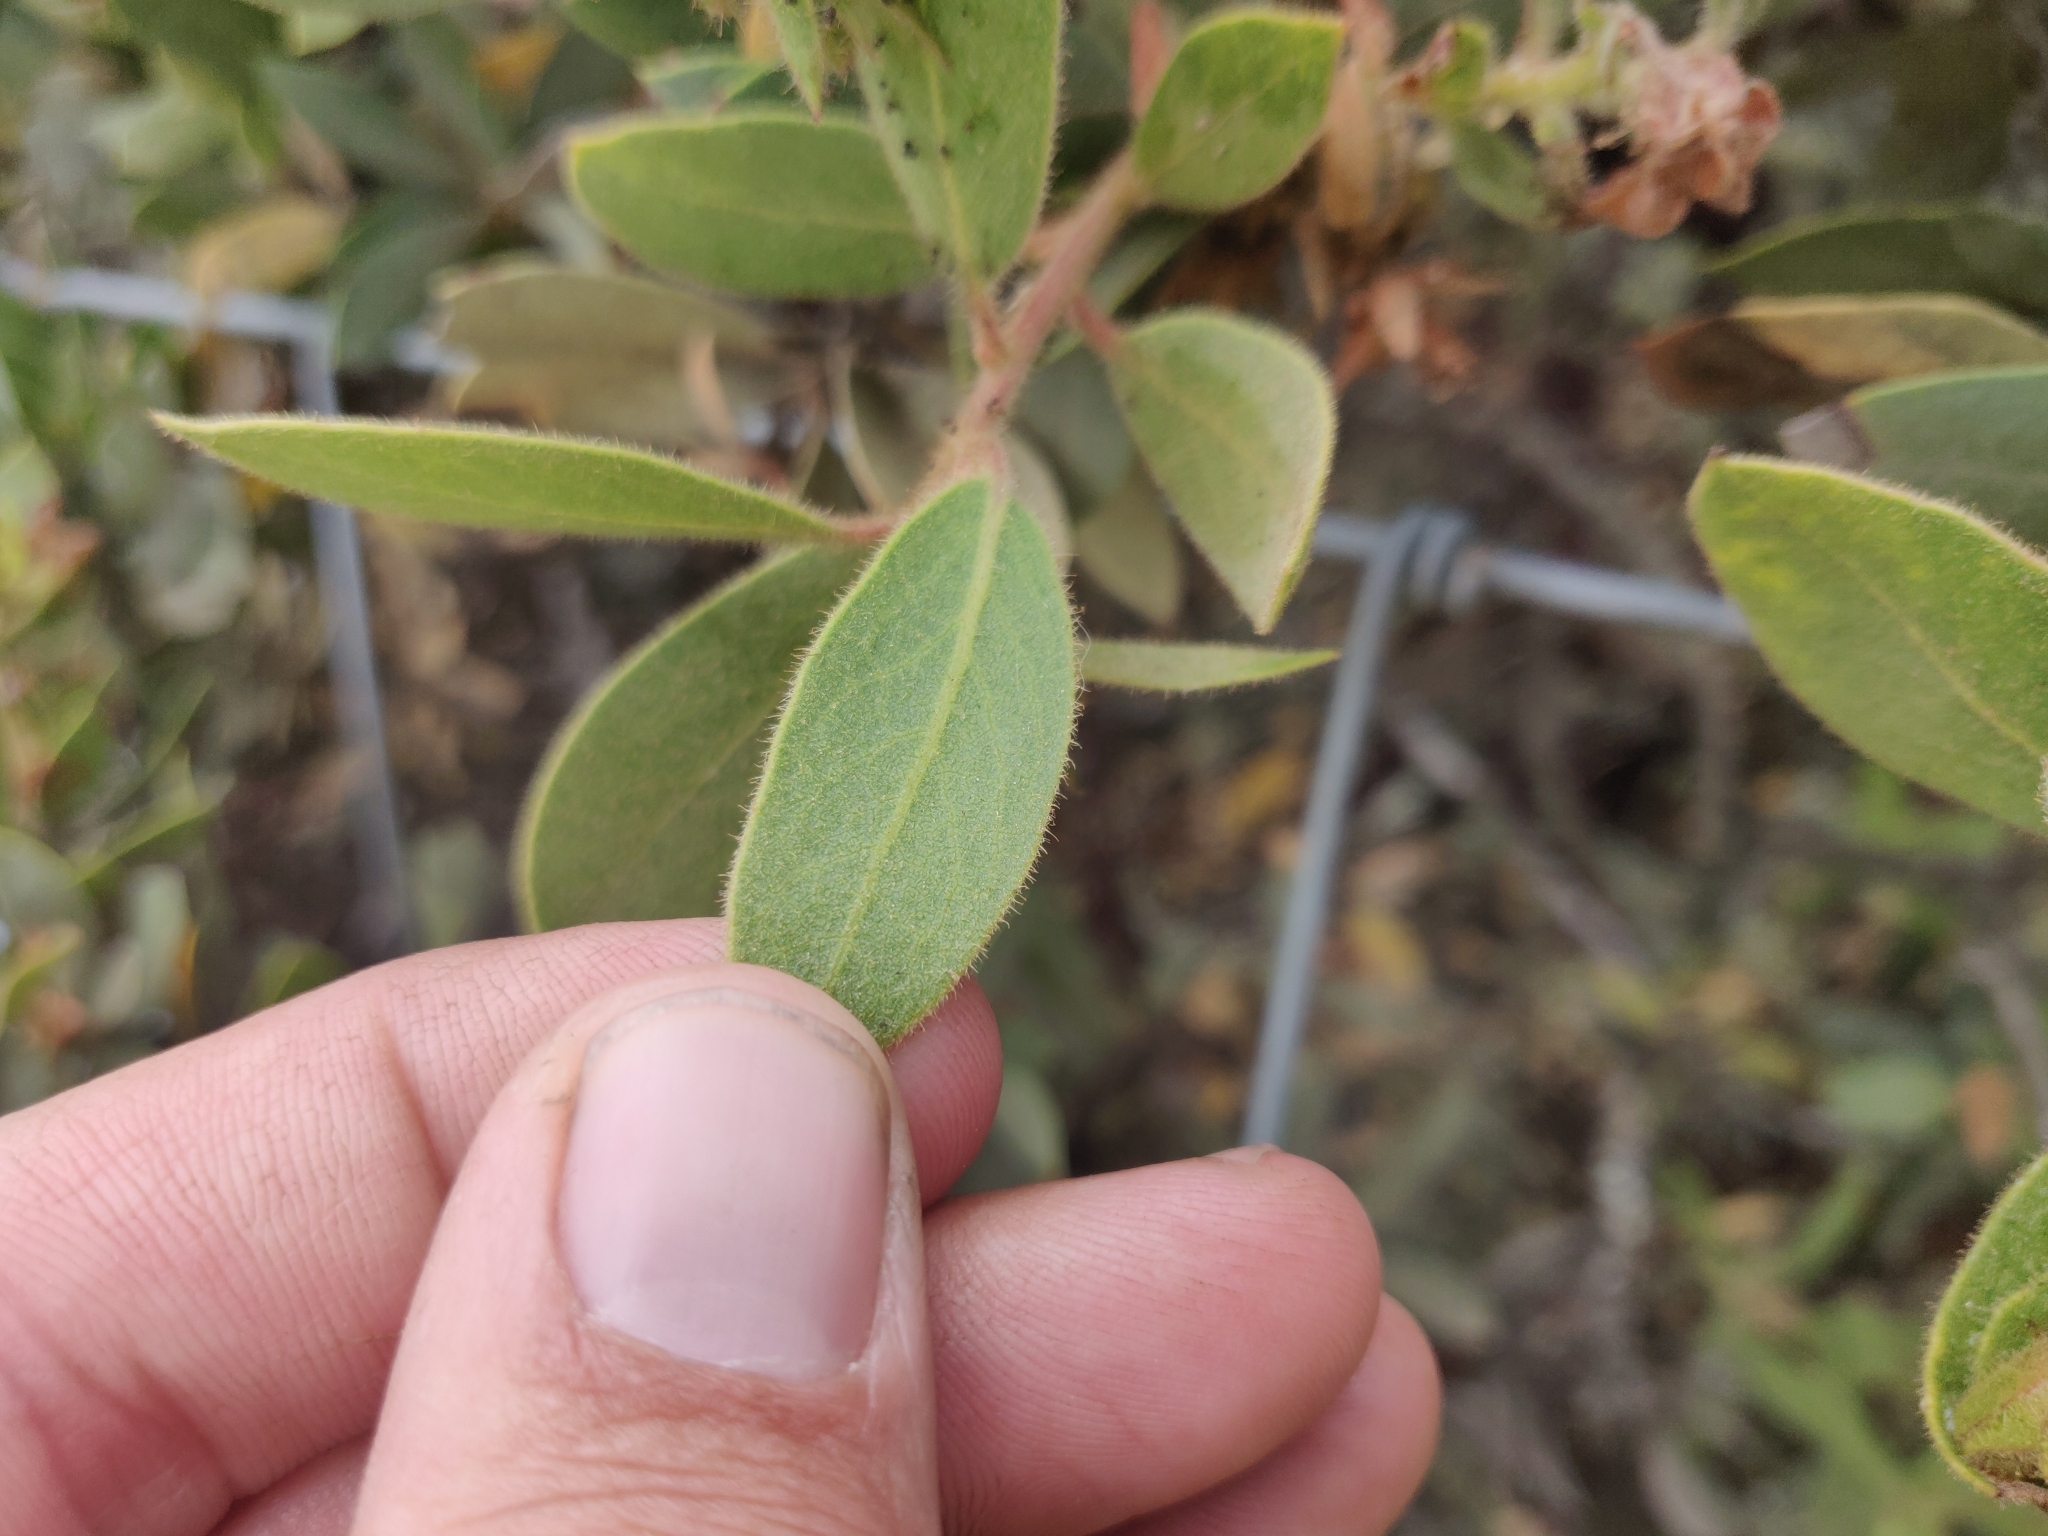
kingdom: Plantae
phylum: Tracheophyta
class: Magnoliopsida
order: Ericales
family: Ericaceae
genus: Arctostaphylos
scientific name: Arctostaphylos glandulosa
